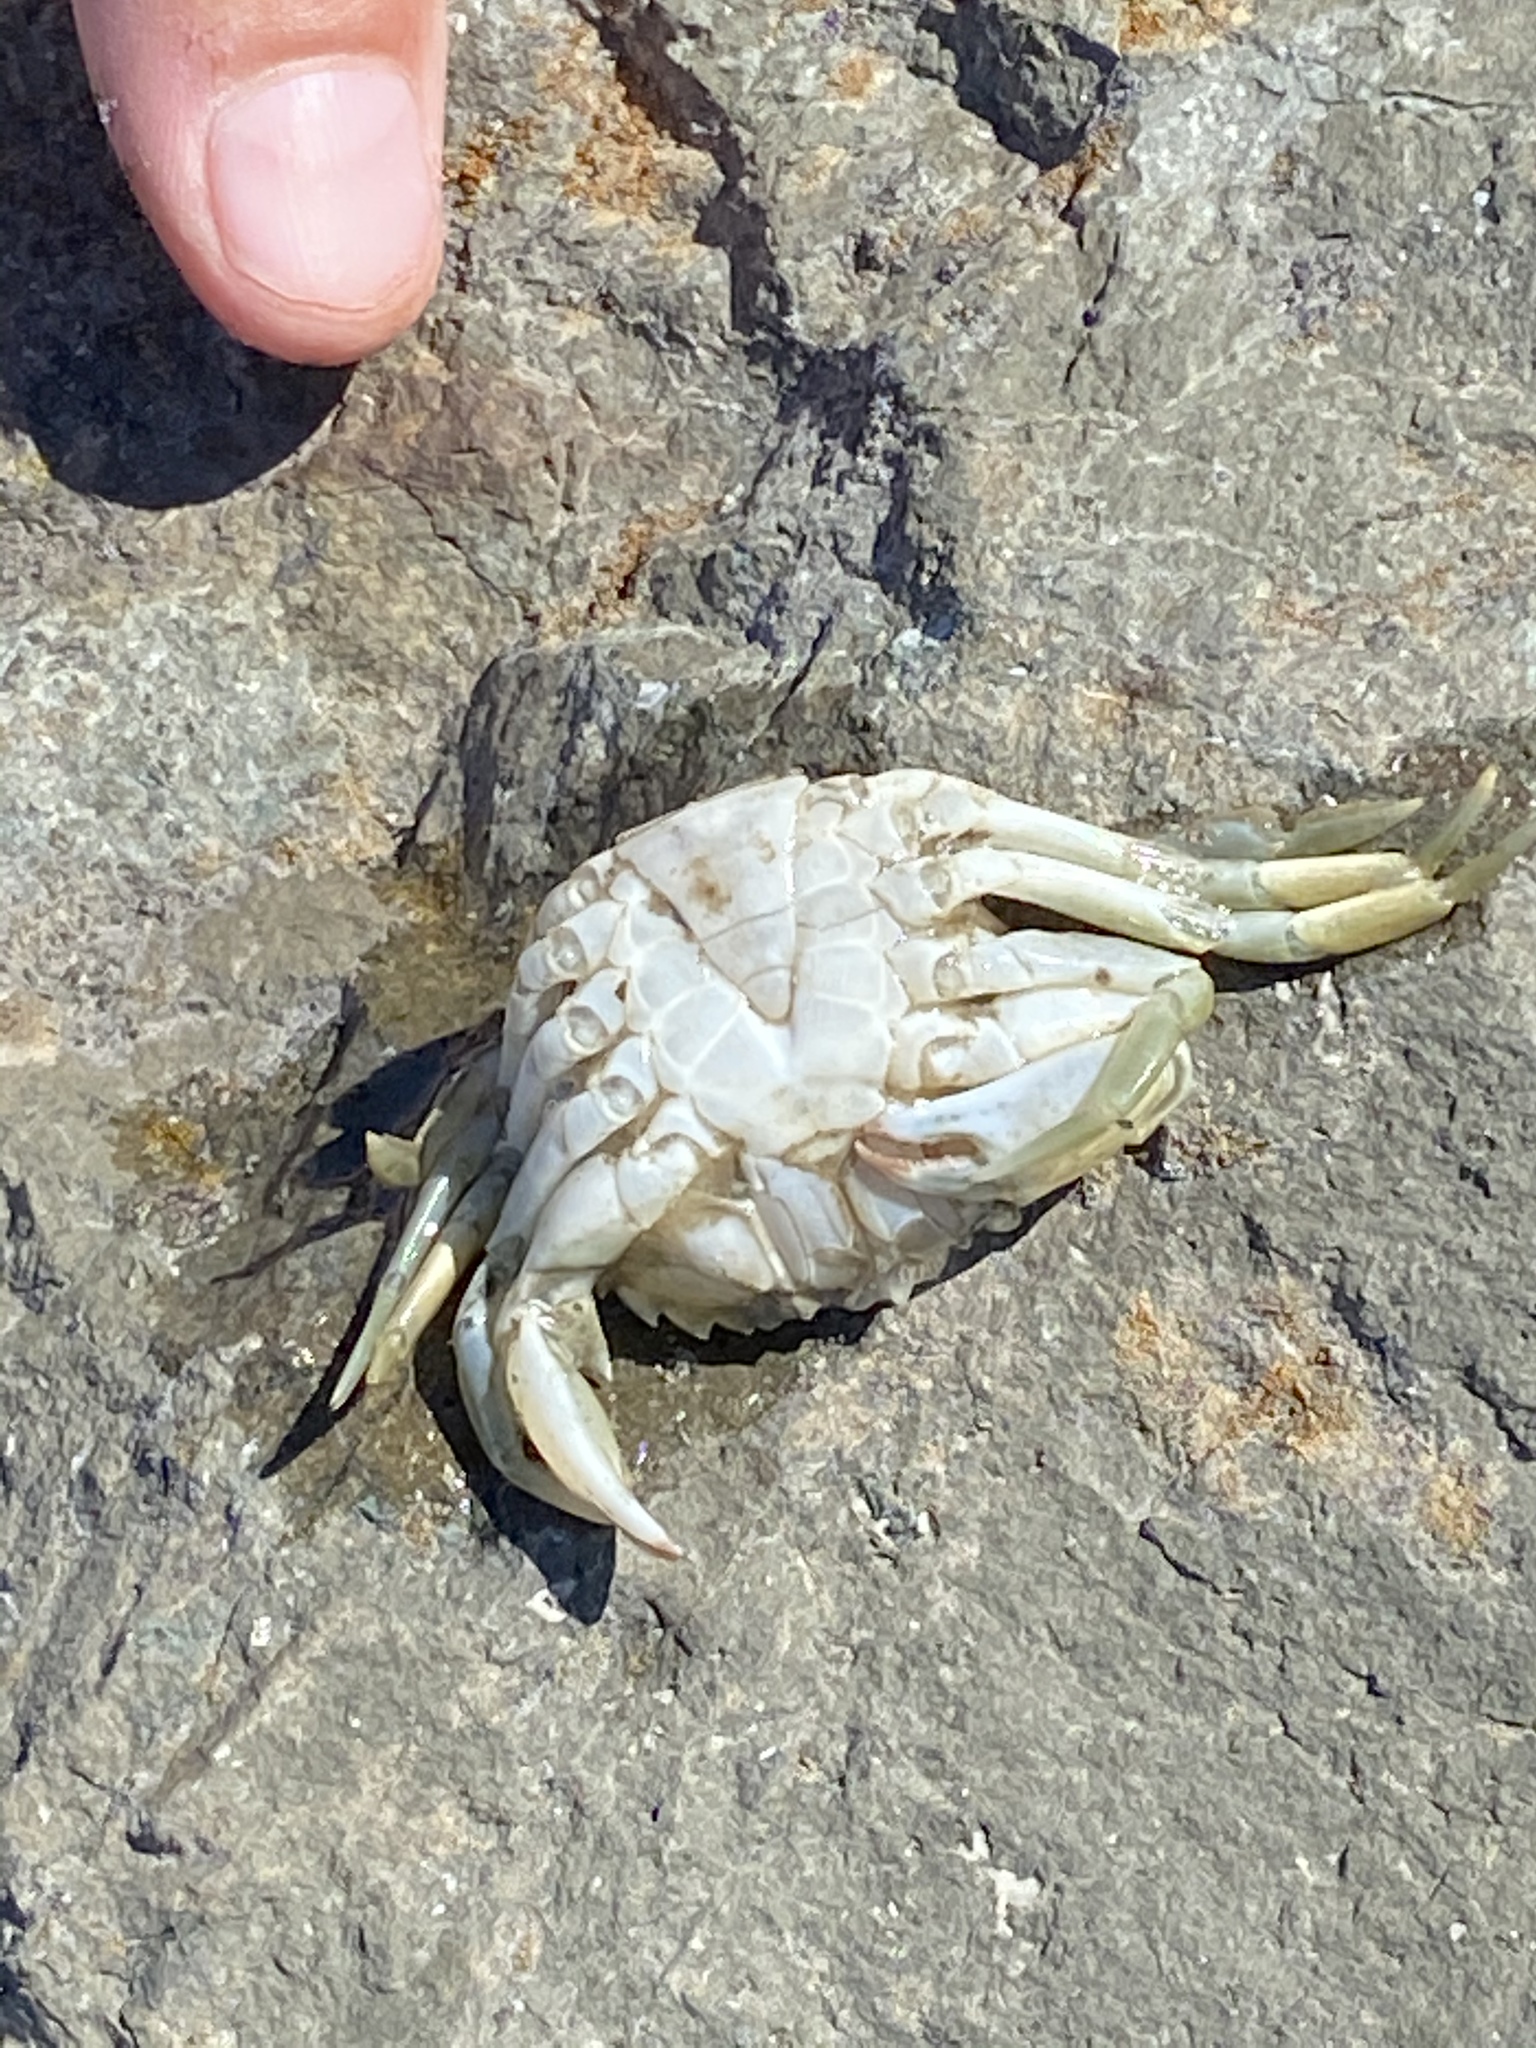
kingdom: Animalia
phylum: Arthropoda
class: Malacostraca
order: Decapoda
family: Carcinidae
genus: Carcinus
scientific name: Carcinus maenas
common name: European green crab
